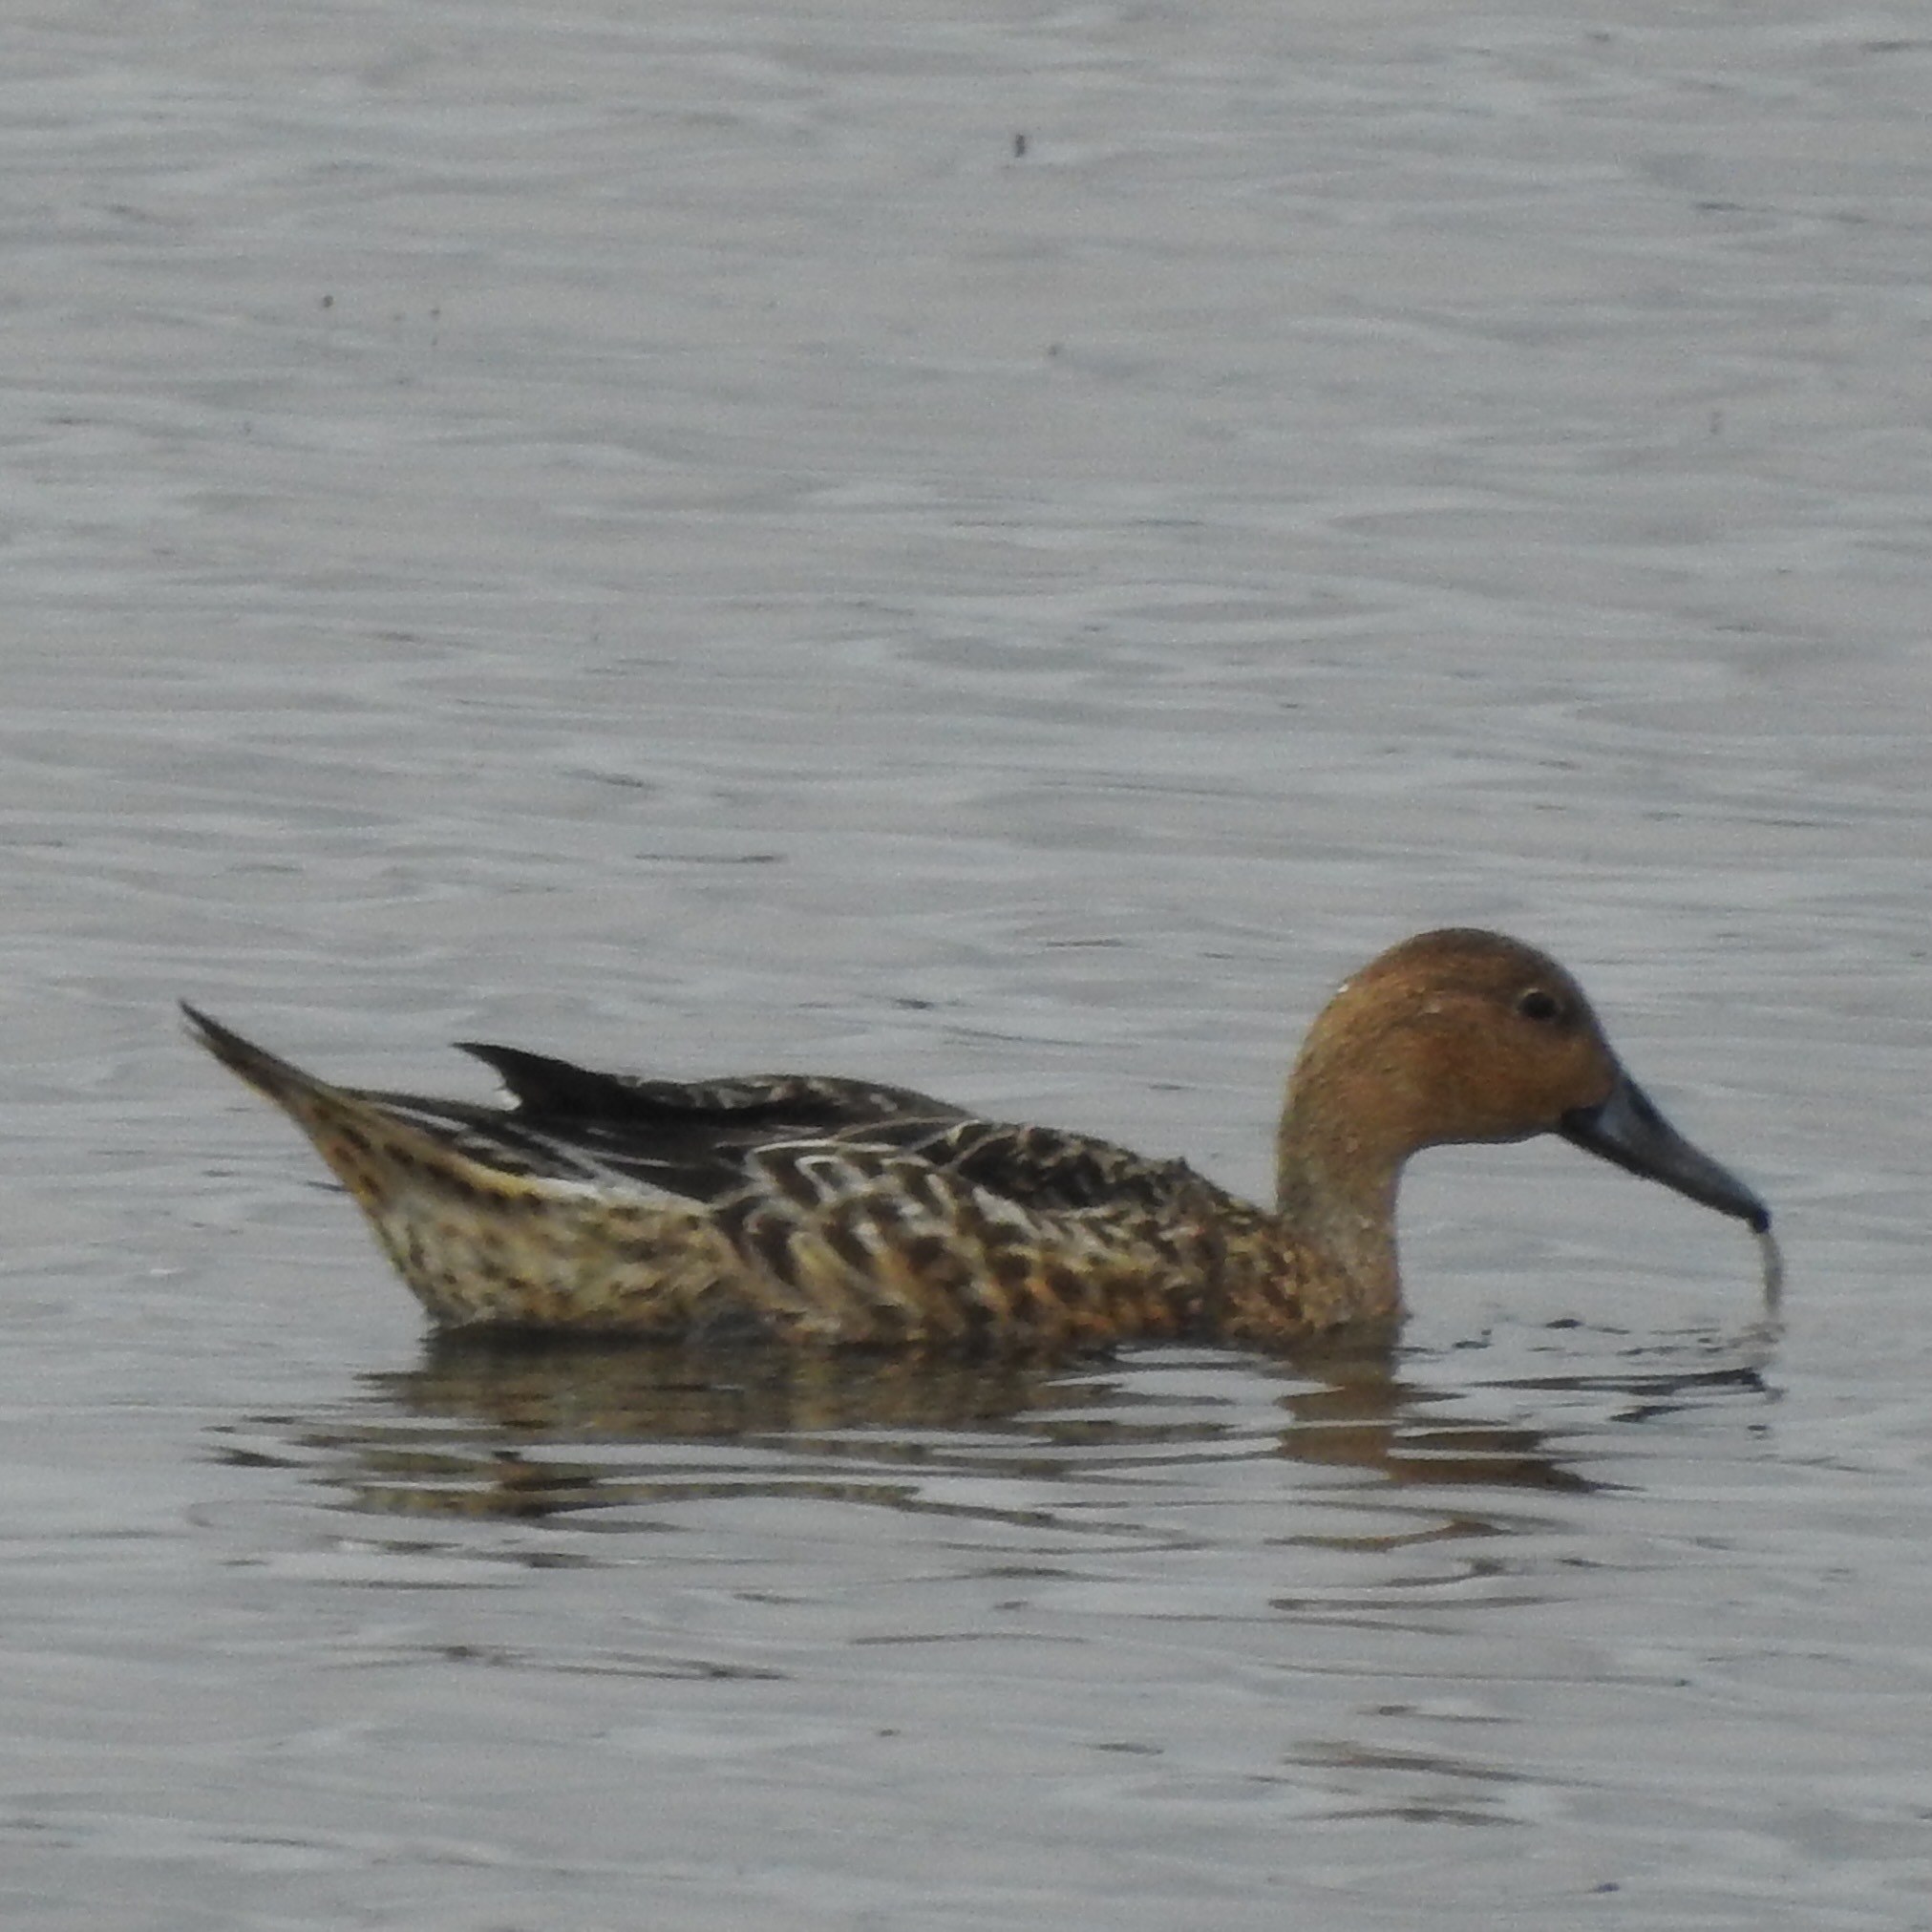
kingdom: Animalia
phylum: Chordata
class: Aves
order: Anseriformes
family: Anatidae
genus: Anas
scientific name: Anas acuta
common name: Northern pintail
